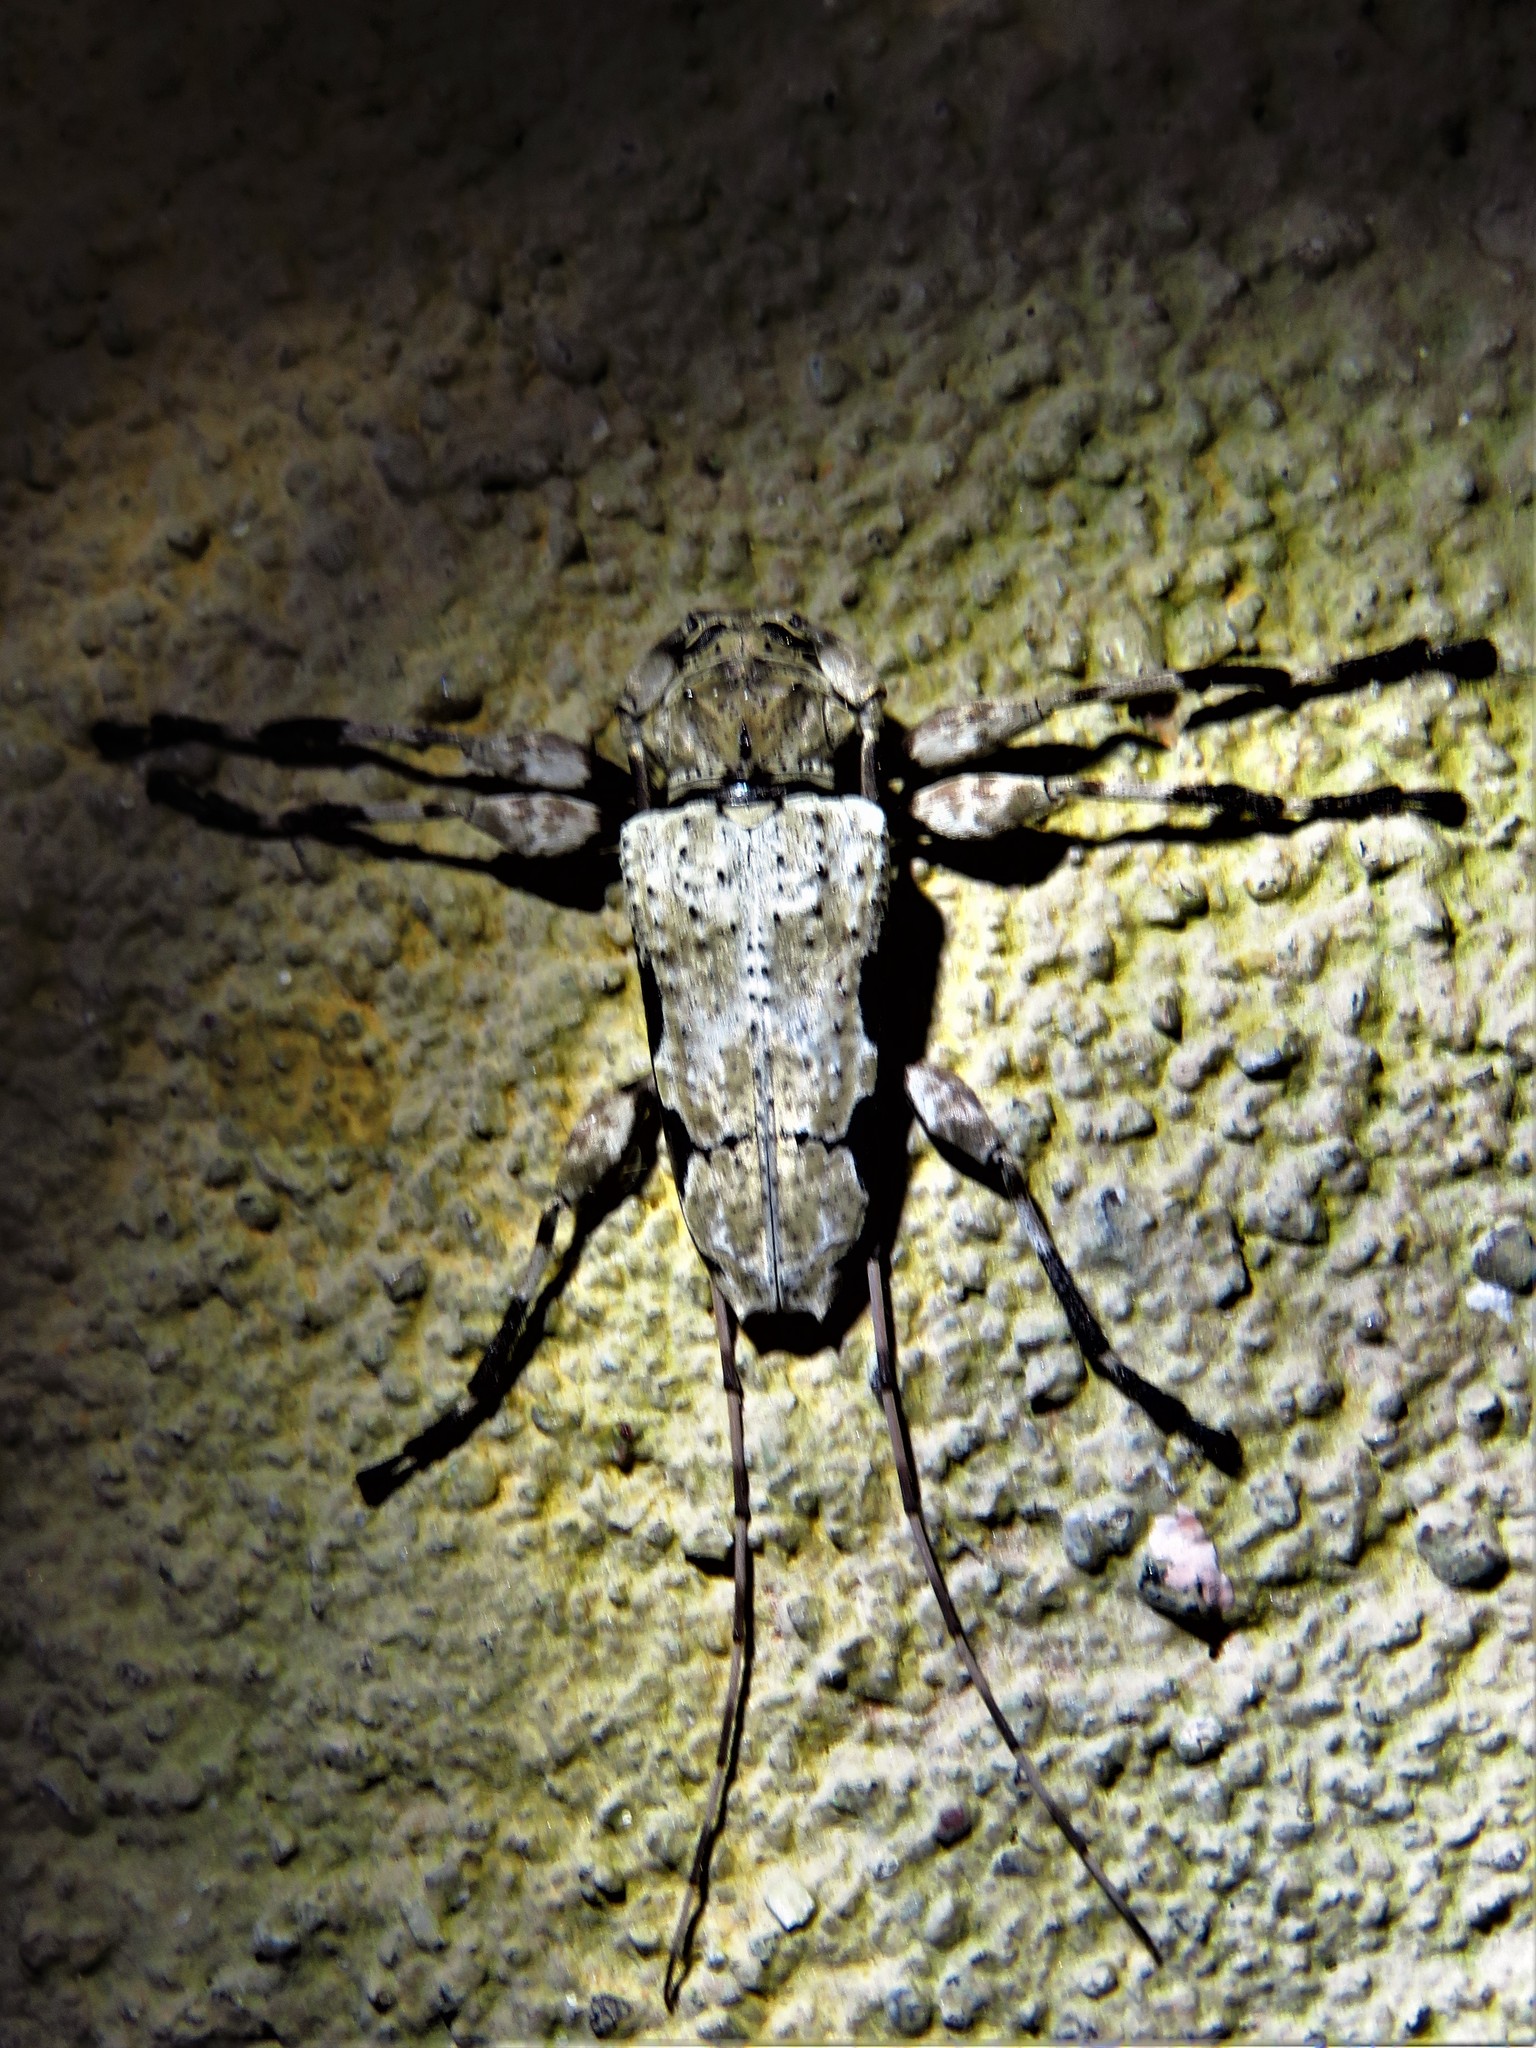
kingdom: Animalia
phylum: Arthropoda
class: Insecta
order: Coleoptera
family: Cerambycidae
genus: Oreodera
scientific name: Oreodera glauca
